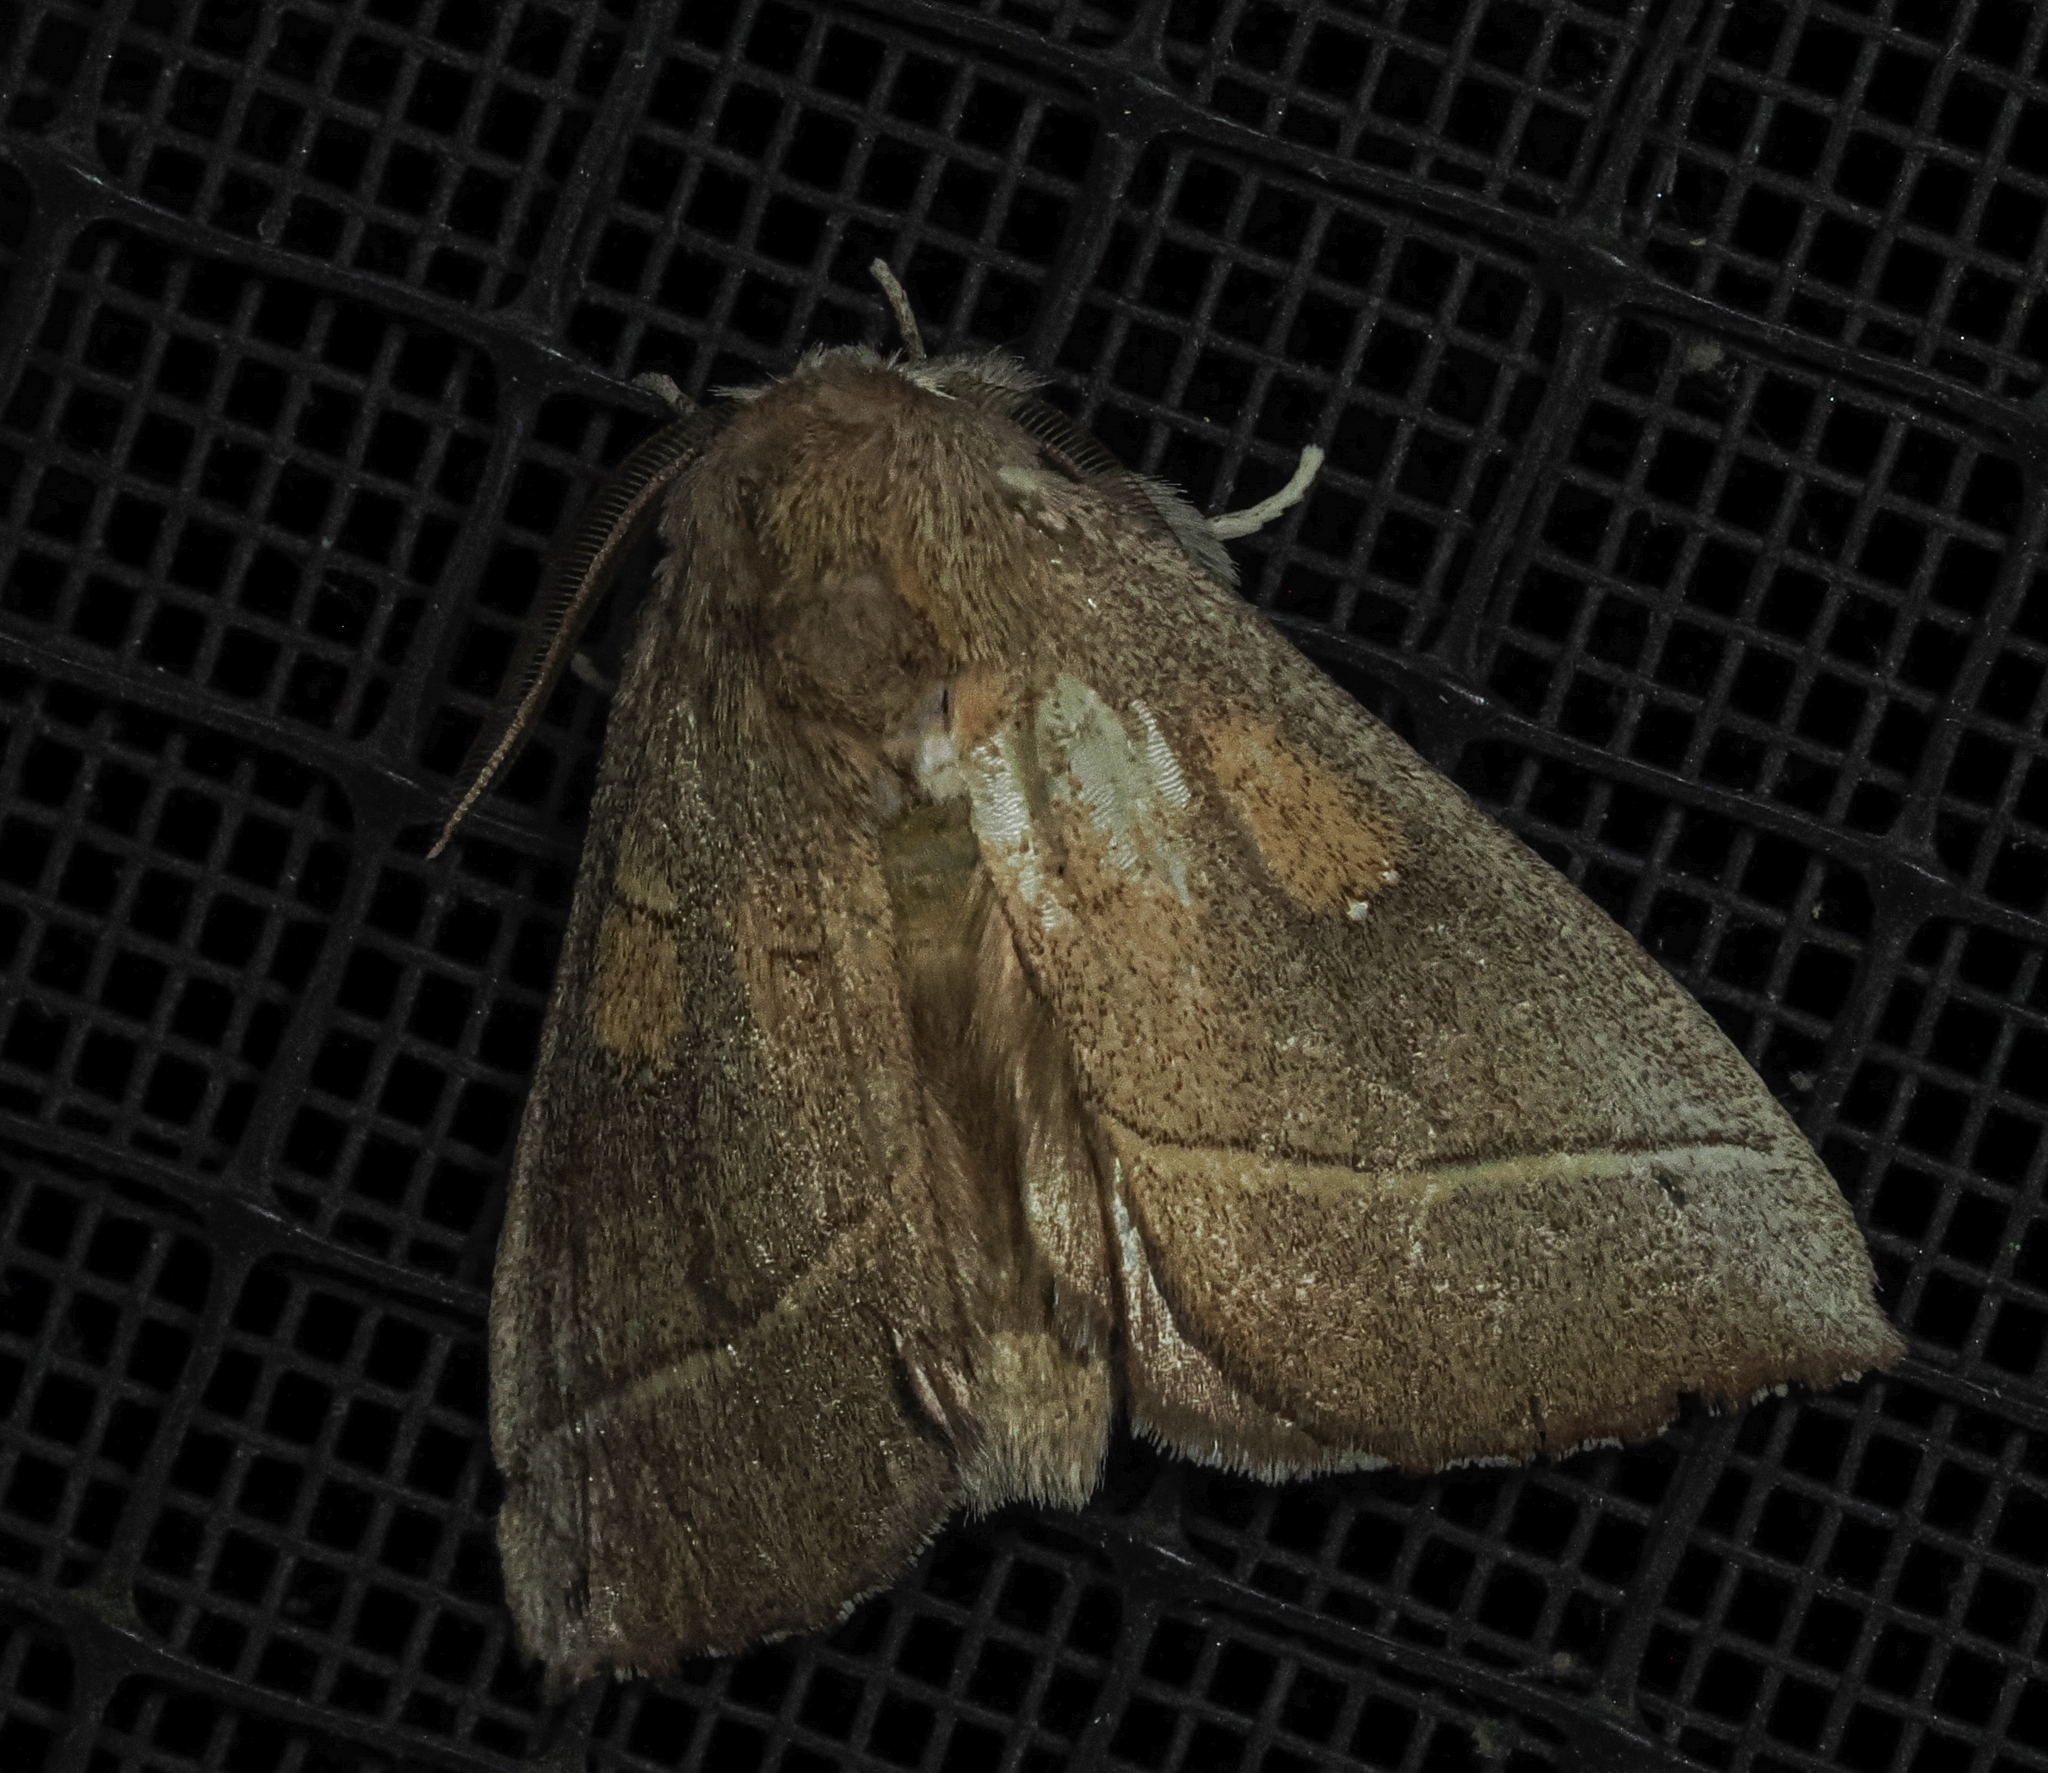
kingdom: Animalia
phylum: Arthropoda
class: Insecta
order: Lepidoptera
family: Notodontidae
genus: Nadata
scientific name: Nadata gibbosa
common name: White-dotted prominent
